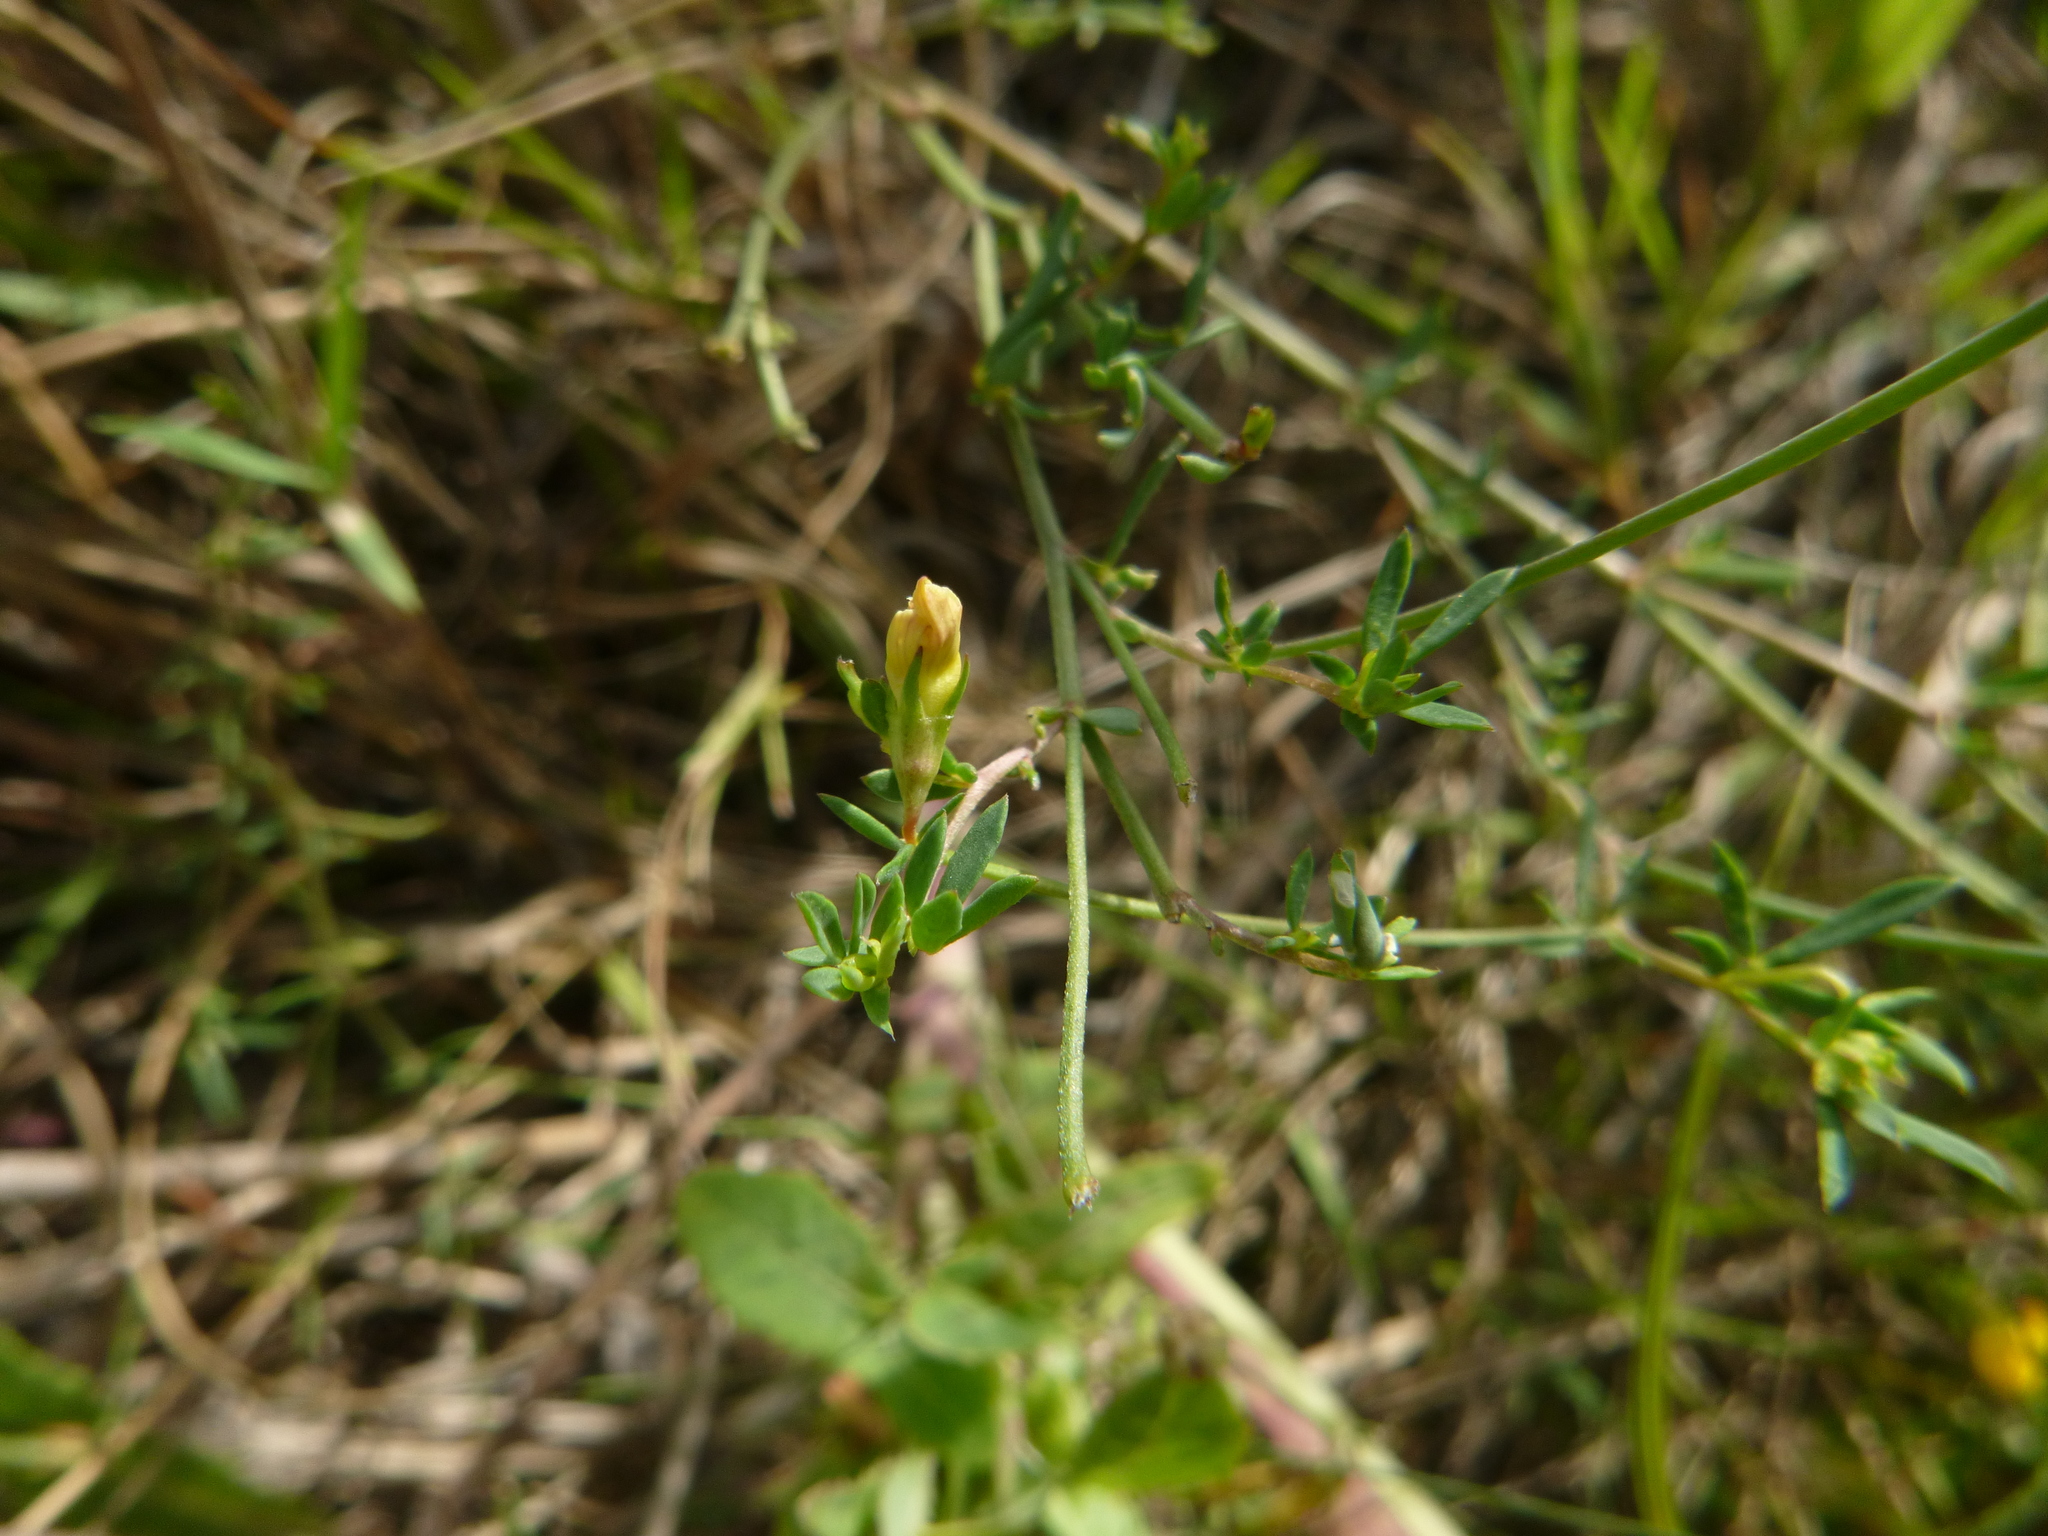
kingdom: Plantae
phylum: Tracheophyta
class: Magnoliopsida
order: Fabales
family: Fabaceae
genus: Lotus
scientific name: Lotus tenuis
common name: Narrow-leaved bird's-foot-trefoil
